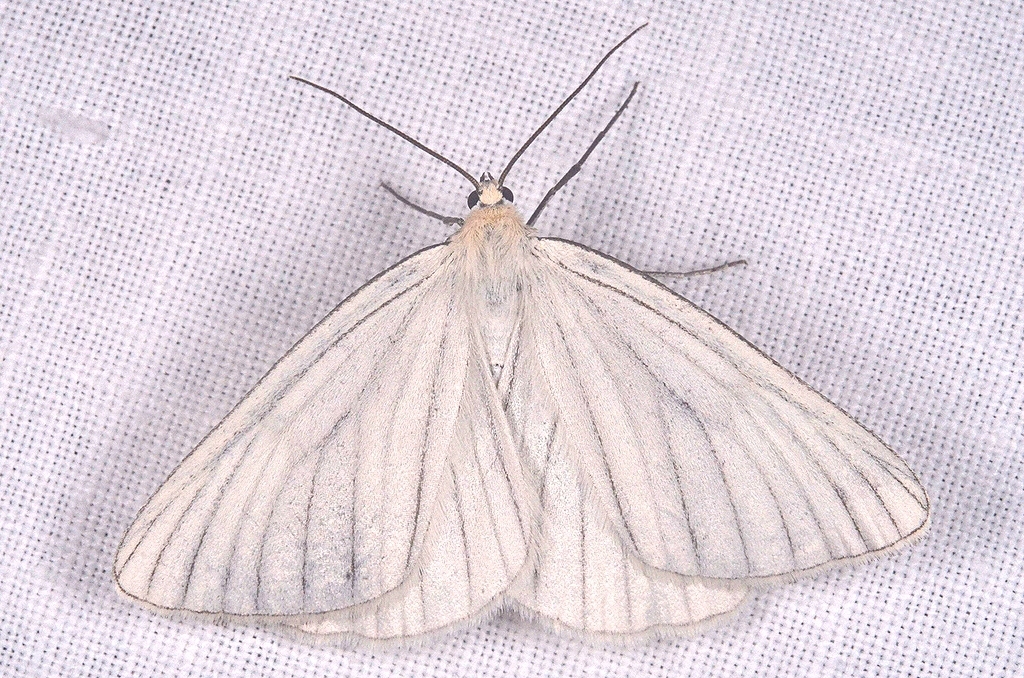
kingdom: Animalia
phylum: Arthropoda
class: Insecta
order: Lepidoptera
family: Geometridae
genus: Siona
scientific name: Siona lineata
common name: Black-veined moth
